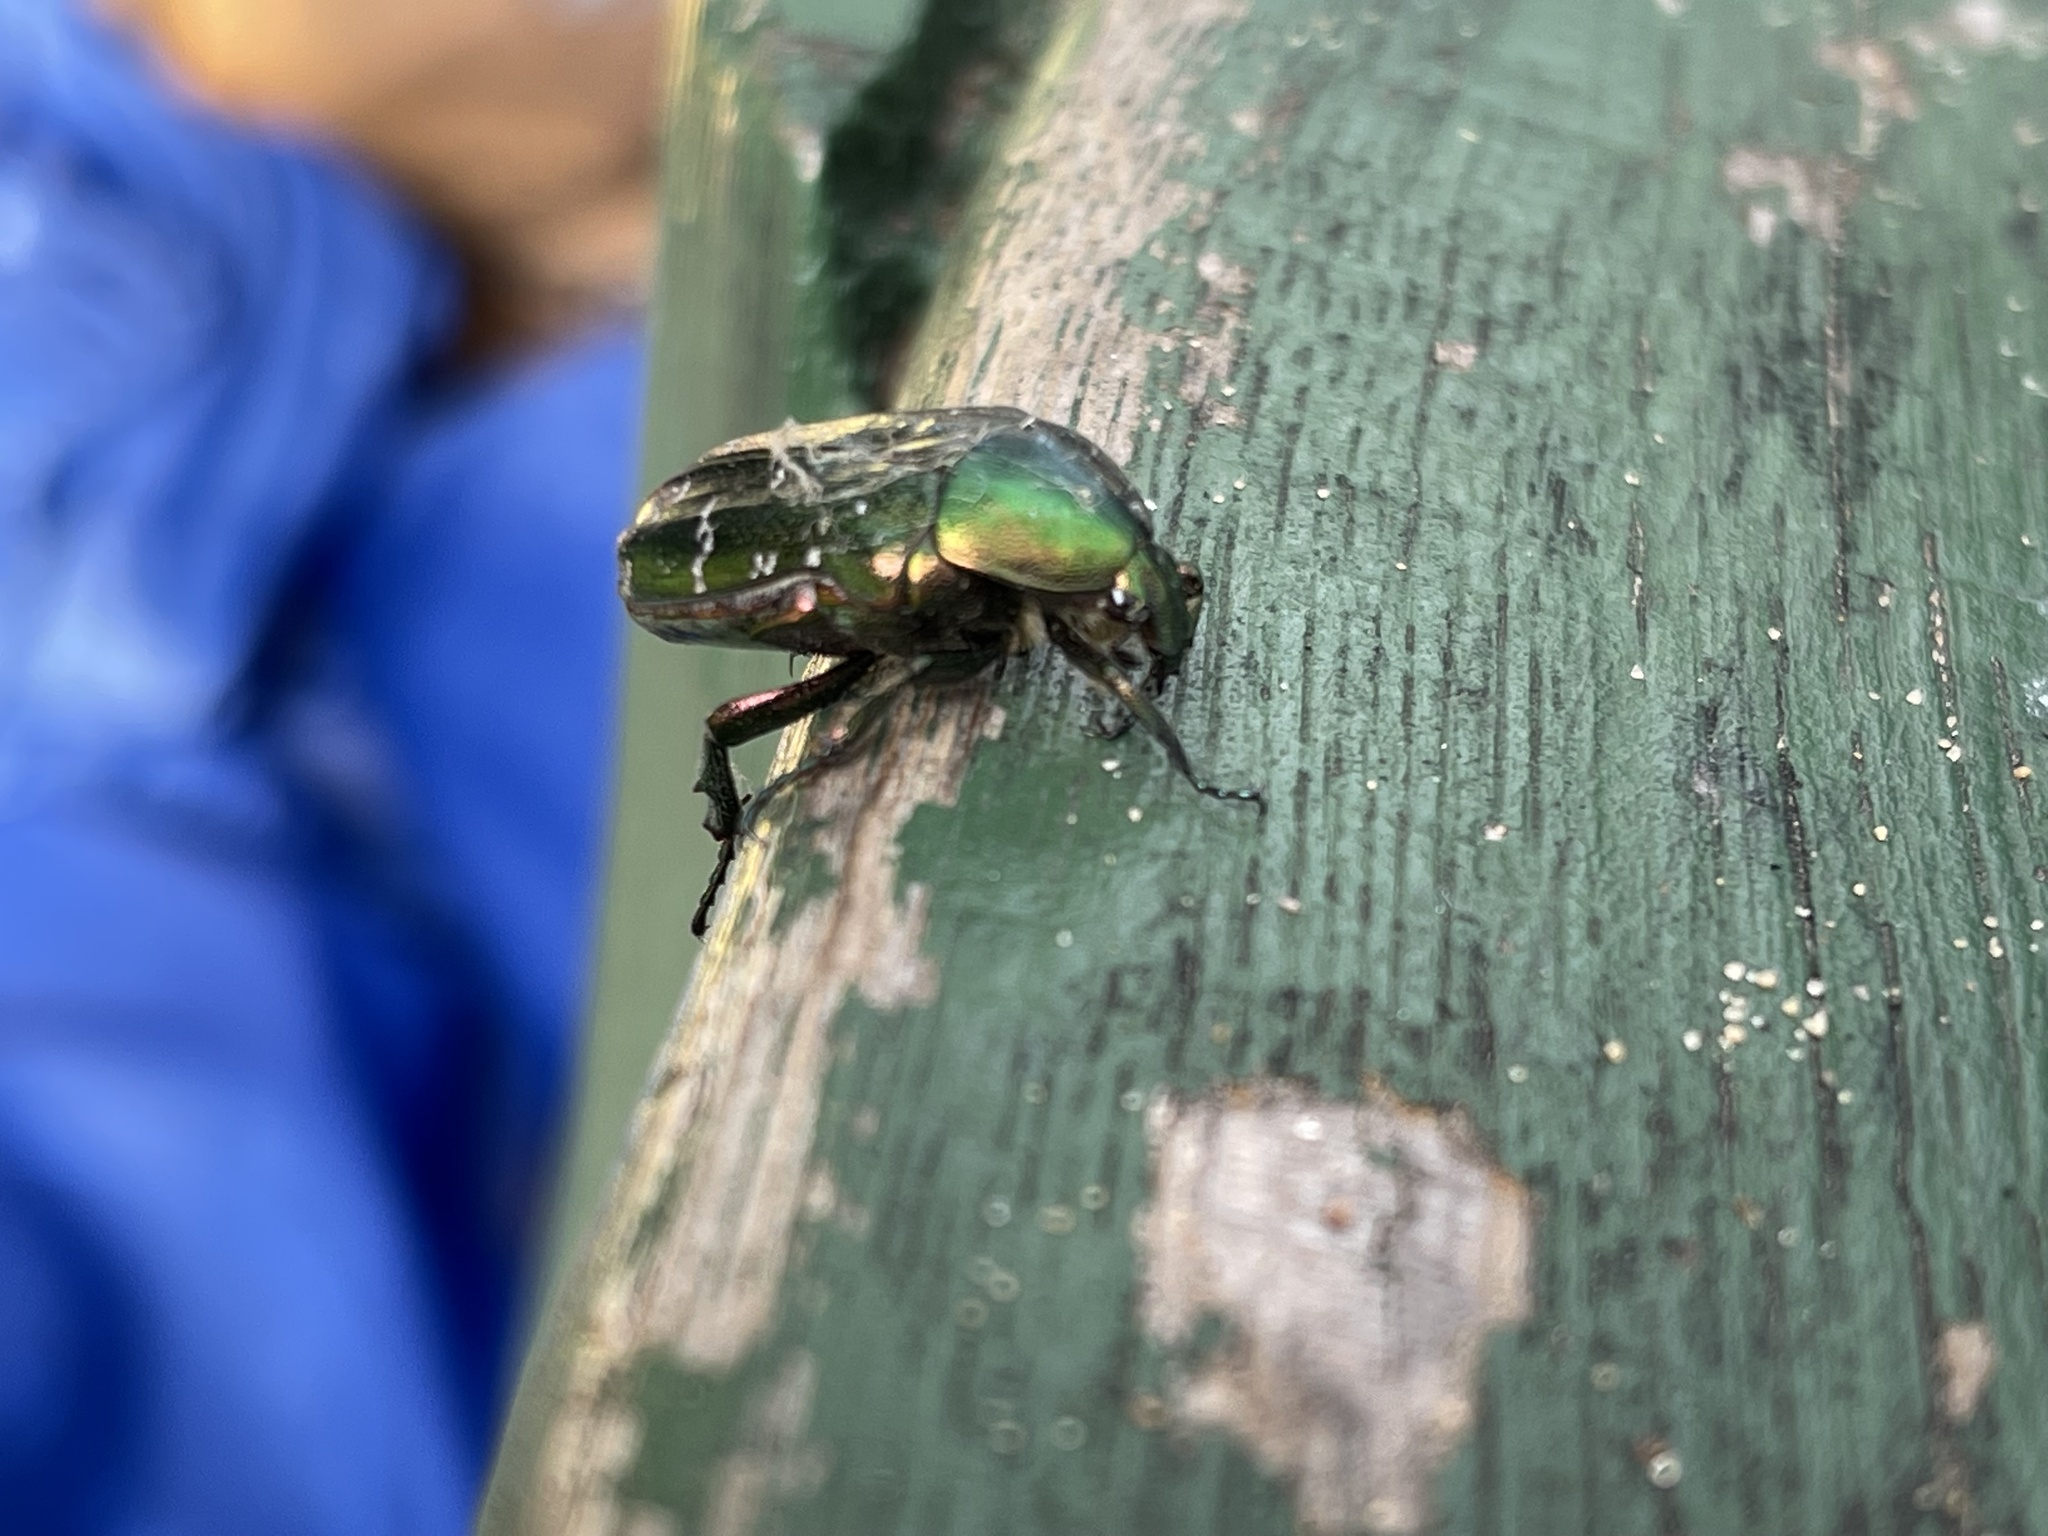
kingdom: Animalia
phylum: Arthropoda
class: Insecta
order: Coleoptera
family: Scarabaeidae
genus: Cetonia
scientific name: Cetonia aurata
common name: Rose chafer
